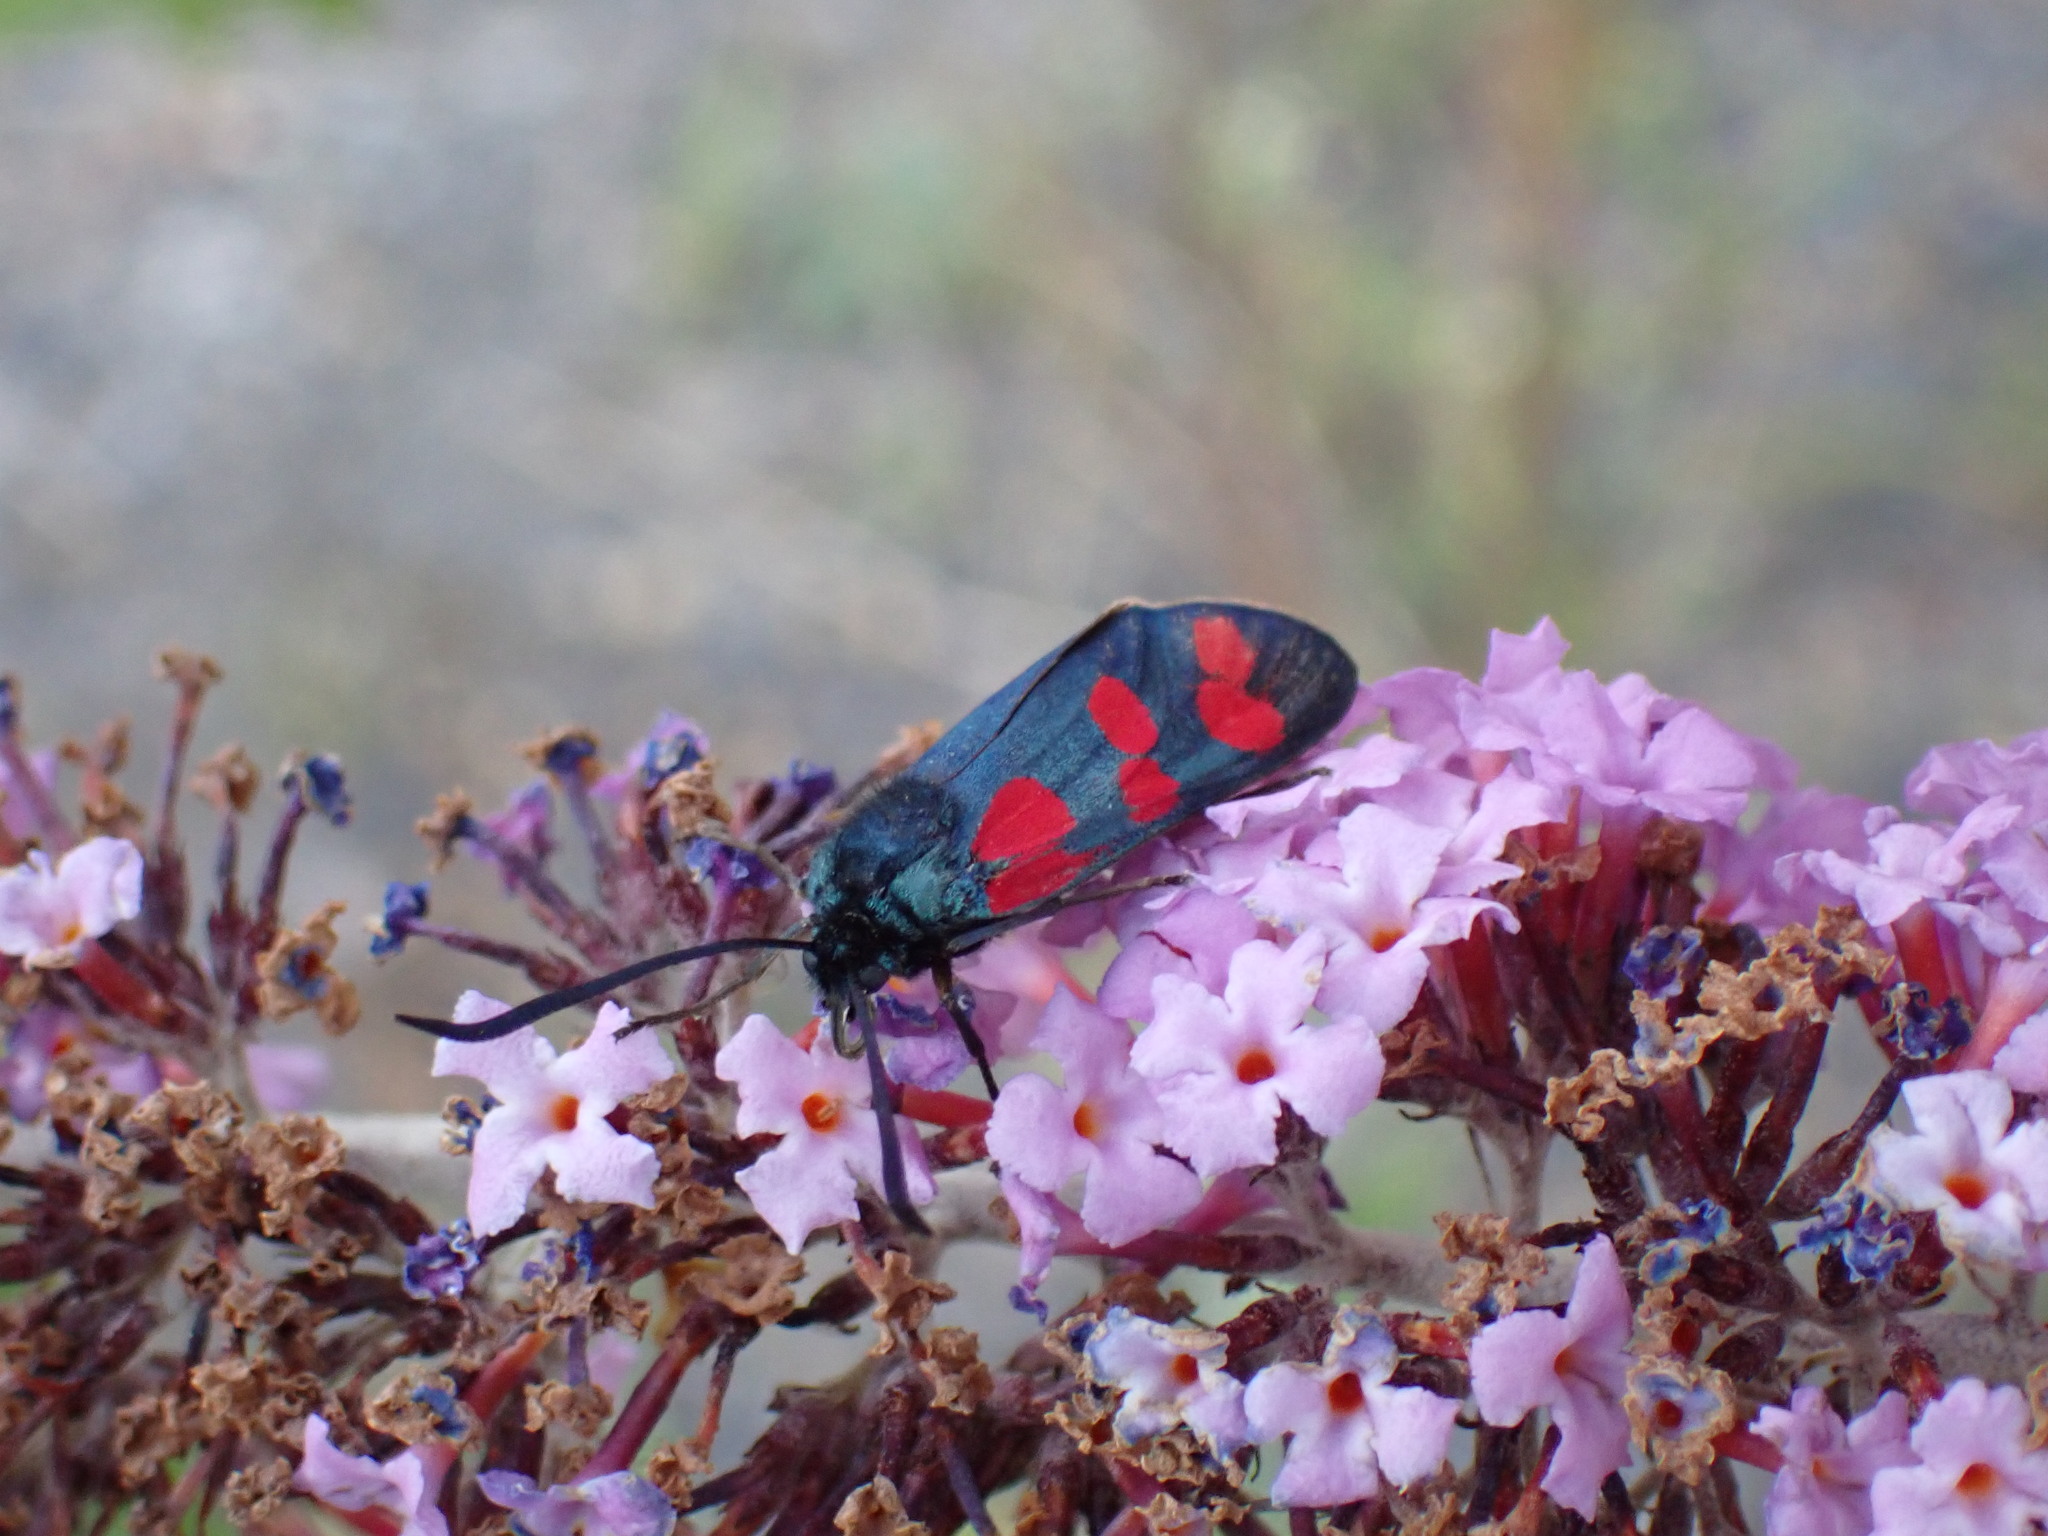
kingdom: Animalia
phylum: Arthropoda
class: Insecta
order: Lepidoptera
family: Zygaenidae
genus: Zygaena
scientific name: Zygaena filipendulae
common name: Six-spot burnet
